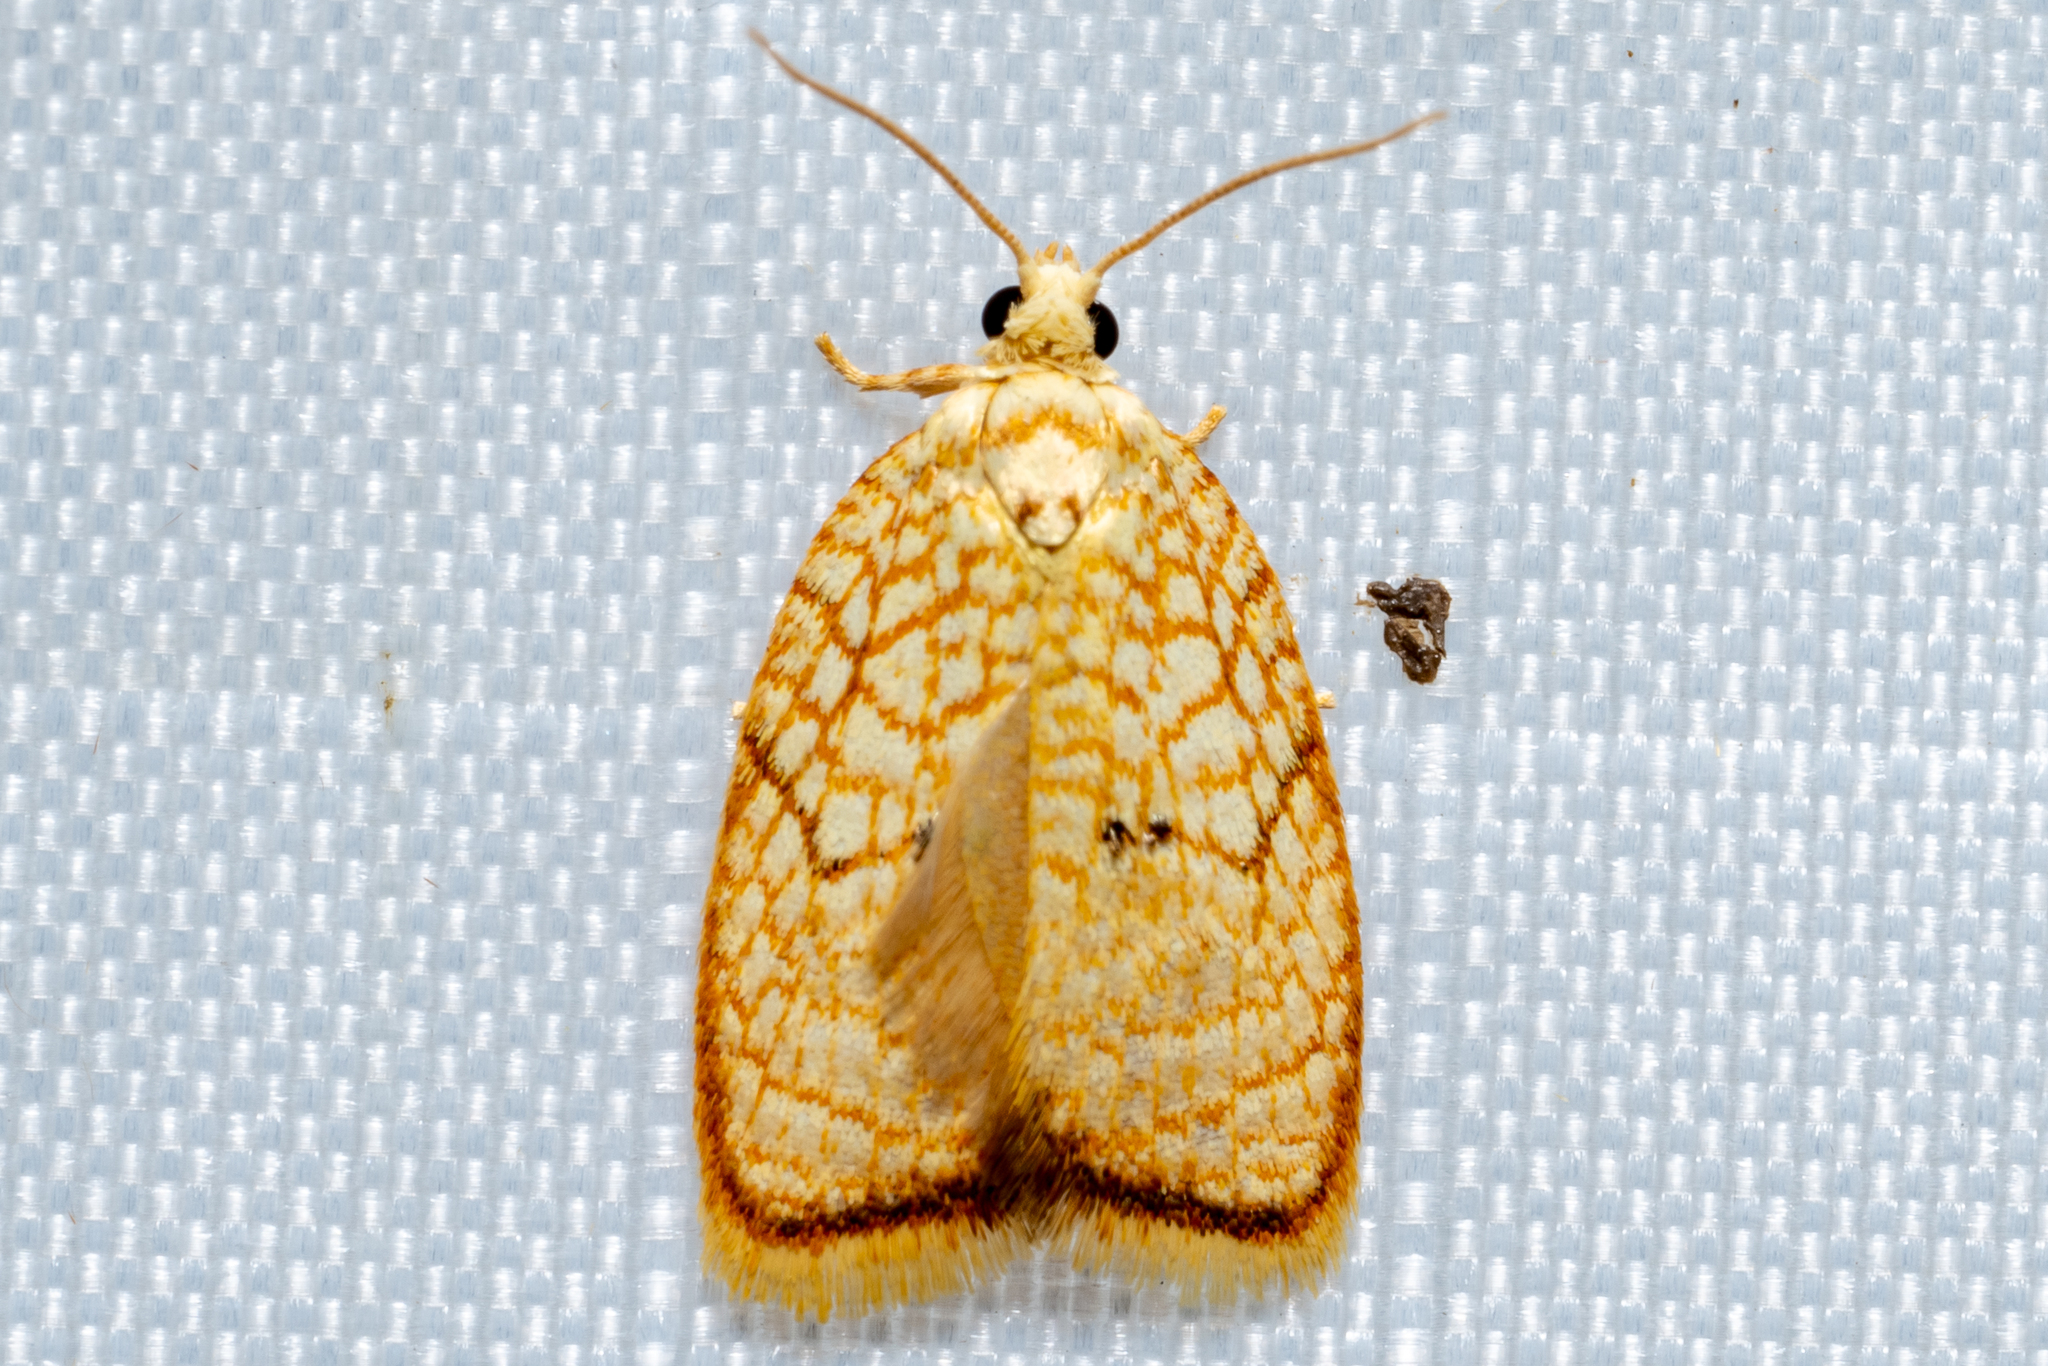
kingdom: Animalia
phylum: Arthropoda
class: Insecta
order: Lepidoptera
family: Tortricidae
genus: Acleris
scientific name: Acleris forsskaleana
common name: Maple button
